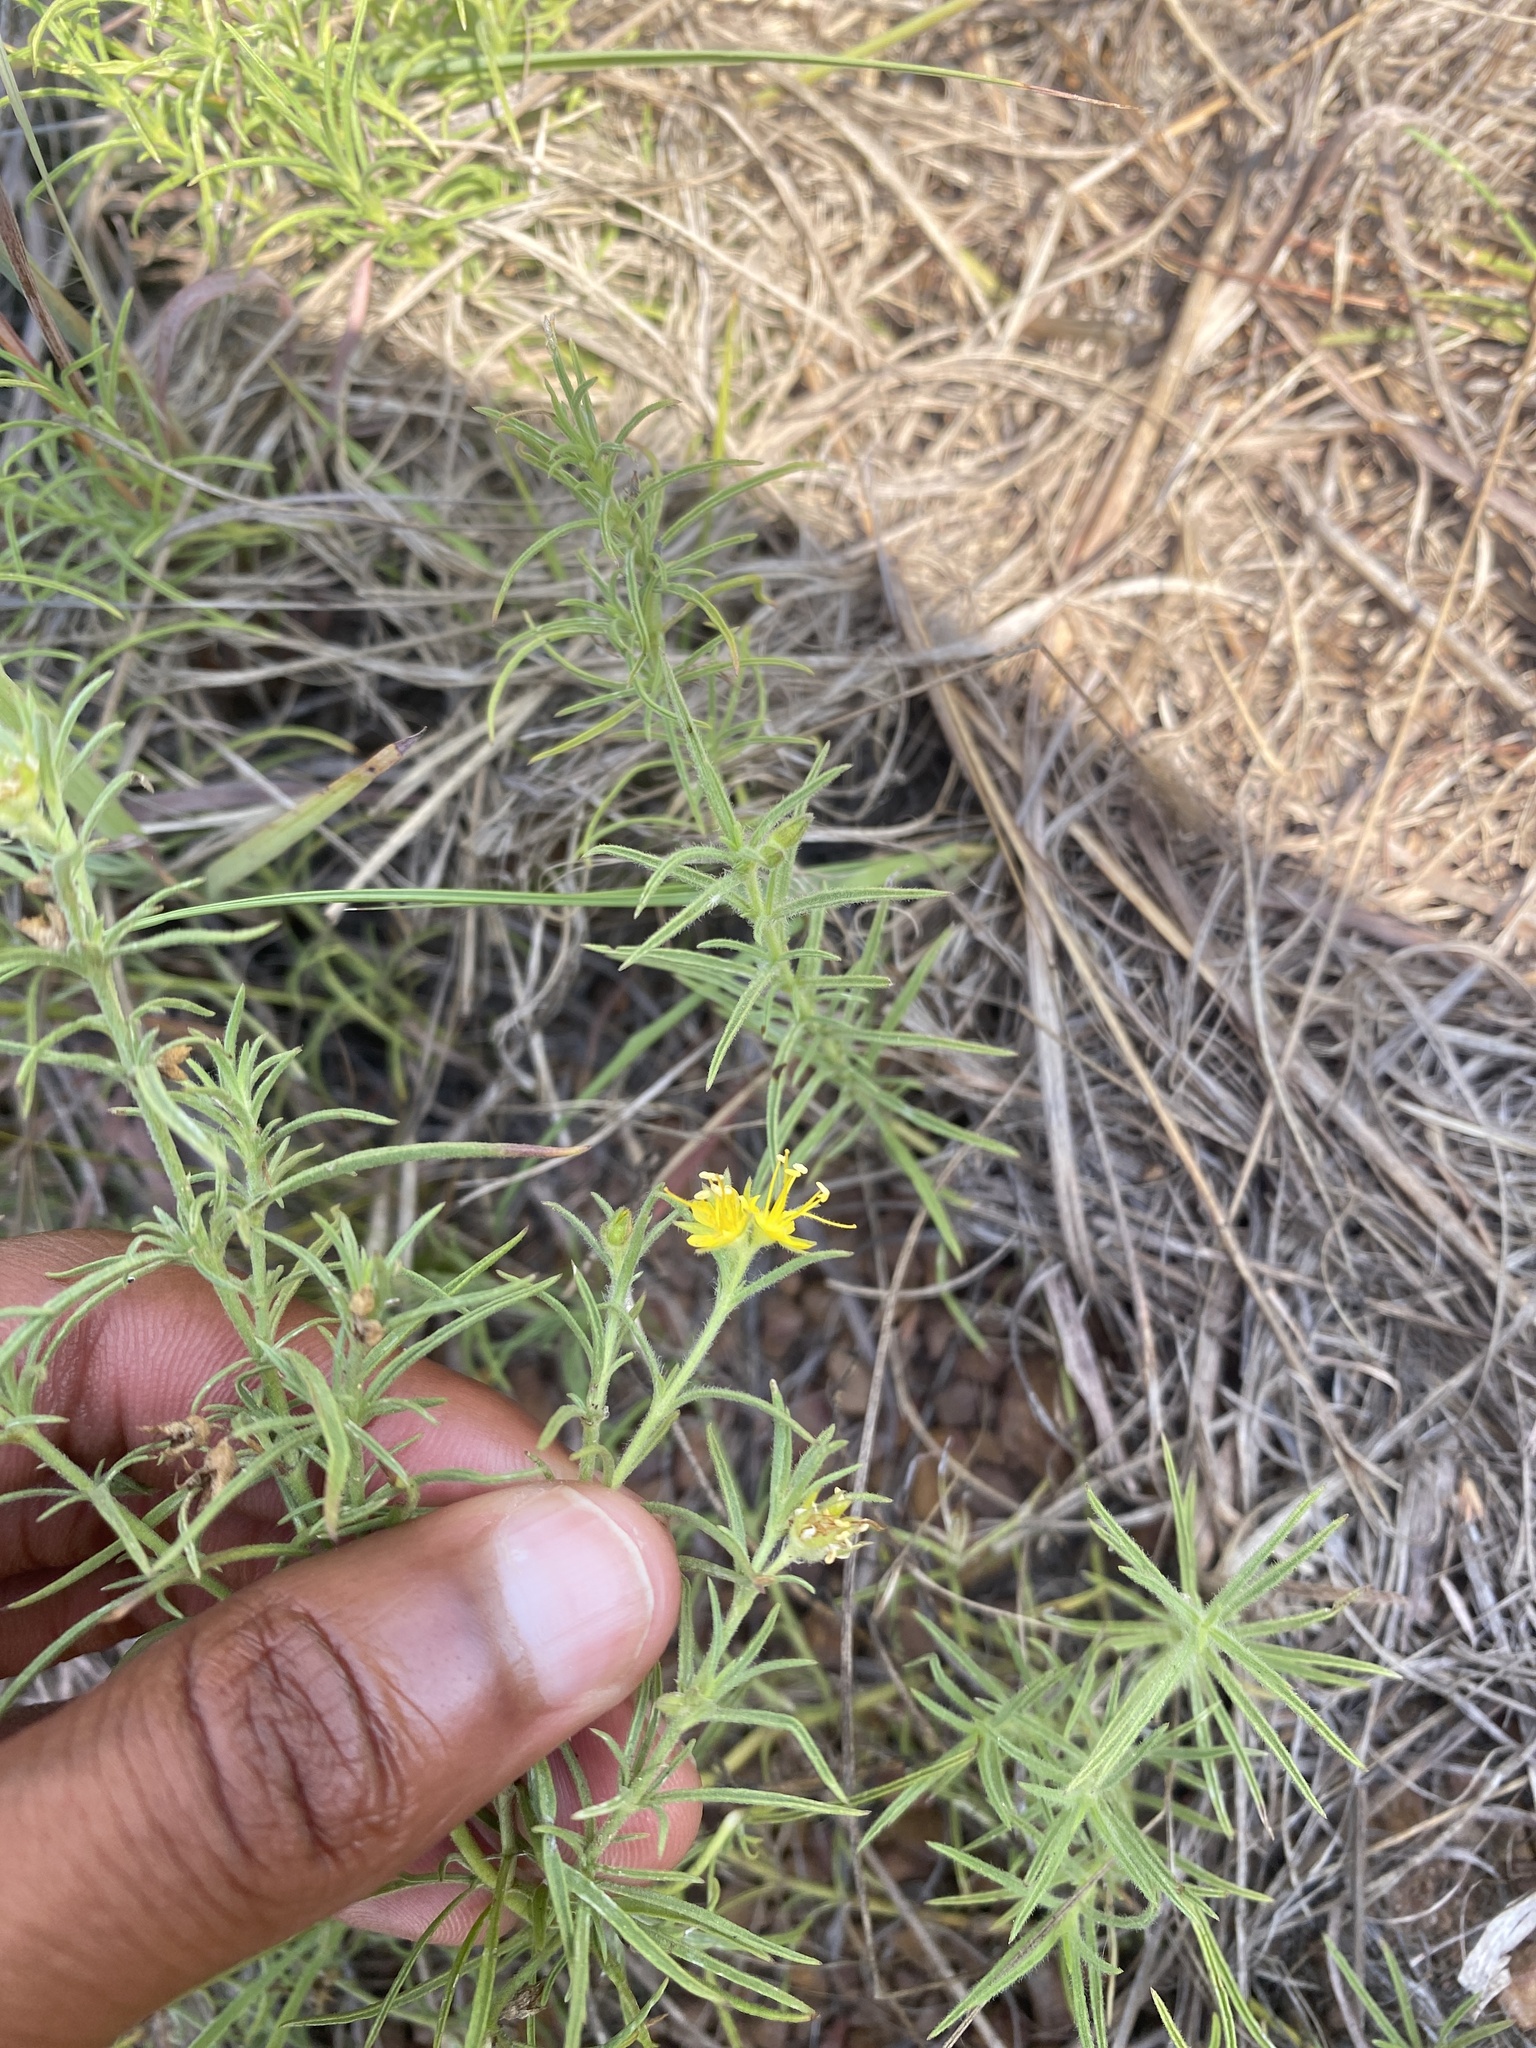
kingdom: Plantae
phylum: Tracheophyta
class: Magnoliopsida
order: Vahliales
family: Vahliaceae
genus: Vahlia
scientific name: Vahlia capensis
